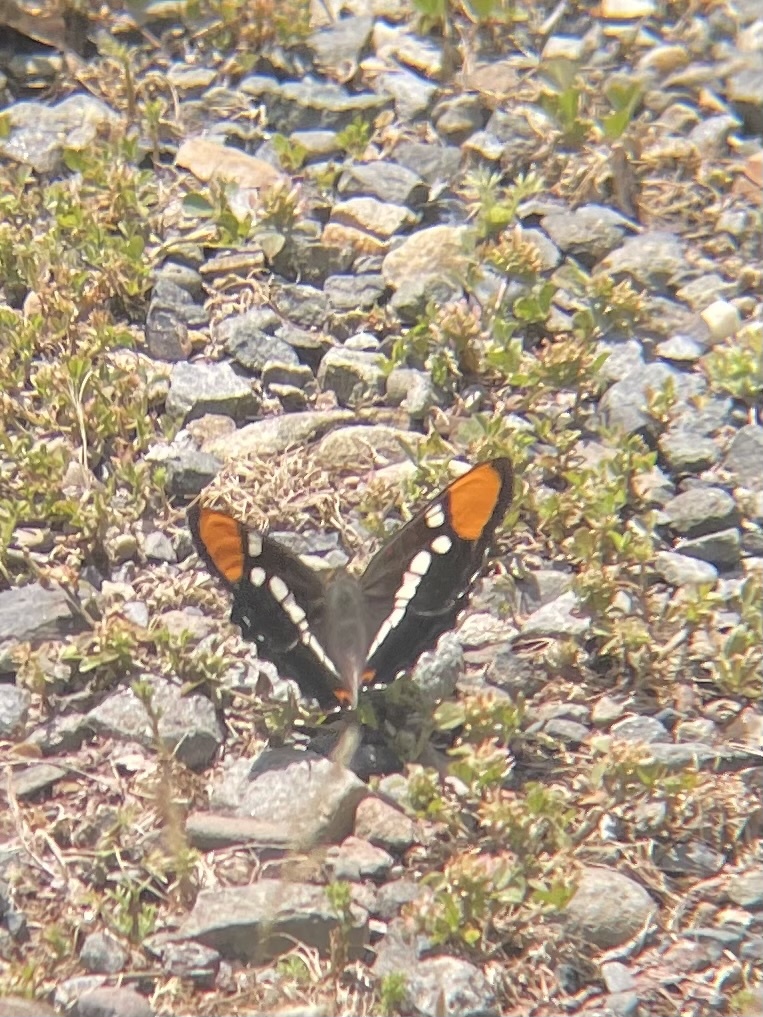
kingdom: Animalia
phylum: Arthropoda
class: Insecta
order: Lepidoptera
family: Nymphalidae
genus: Limenitis
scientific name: Limenitis bredowii
